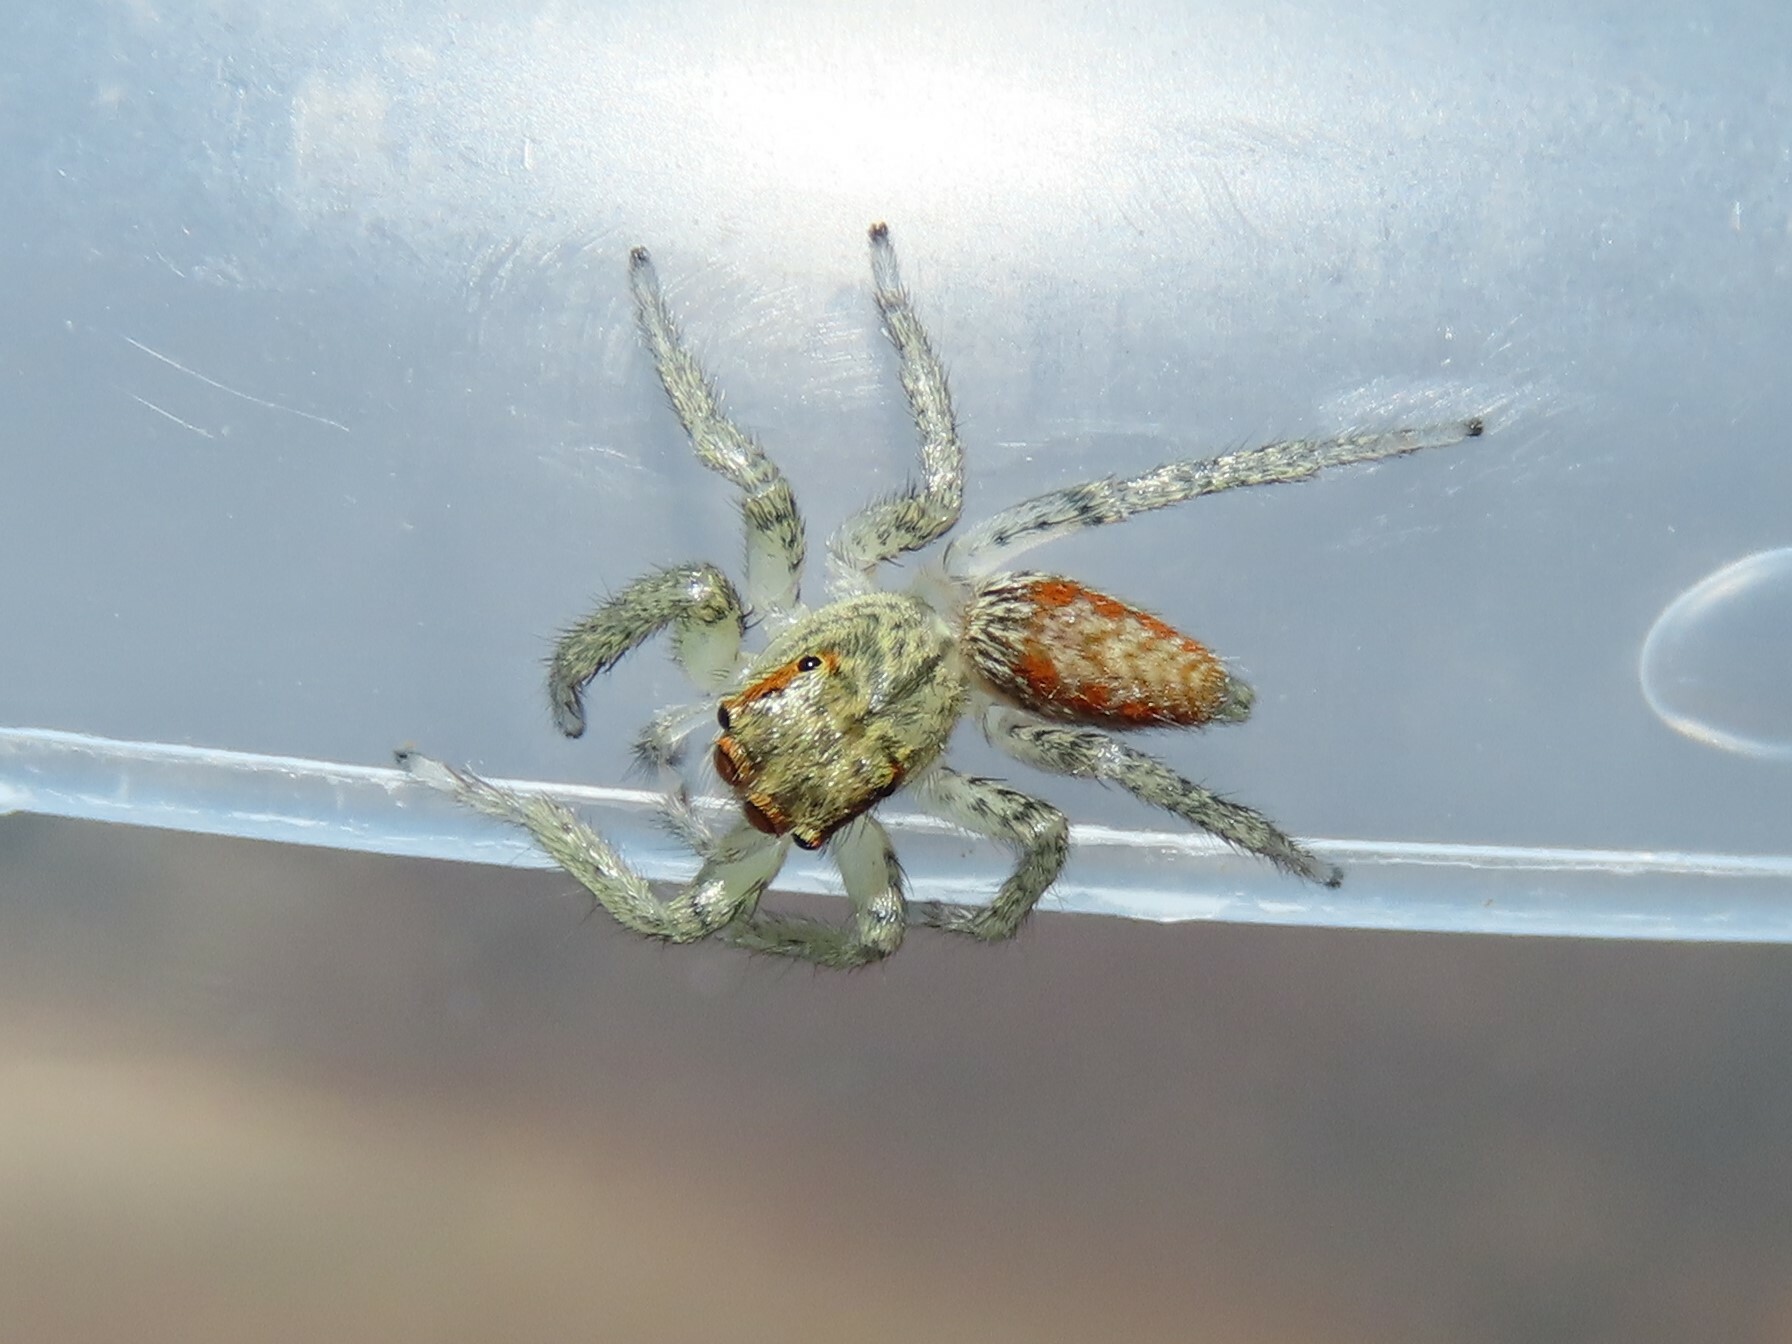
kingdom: Animalia
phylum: Arthropoda
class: Arachnida
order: Araneae
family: Salticidae
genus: Maevia
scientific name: Maevia inclemens
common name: Dimorphic jumper
